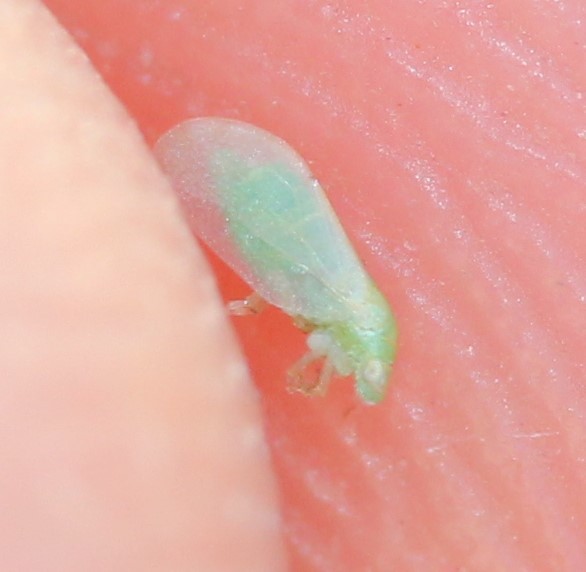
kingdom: Animalia
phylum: Arthropoda
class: Insecta
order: Hemiptera
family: Psyllidae
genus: Aphalaroida
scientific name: Aphalaroida inermis
